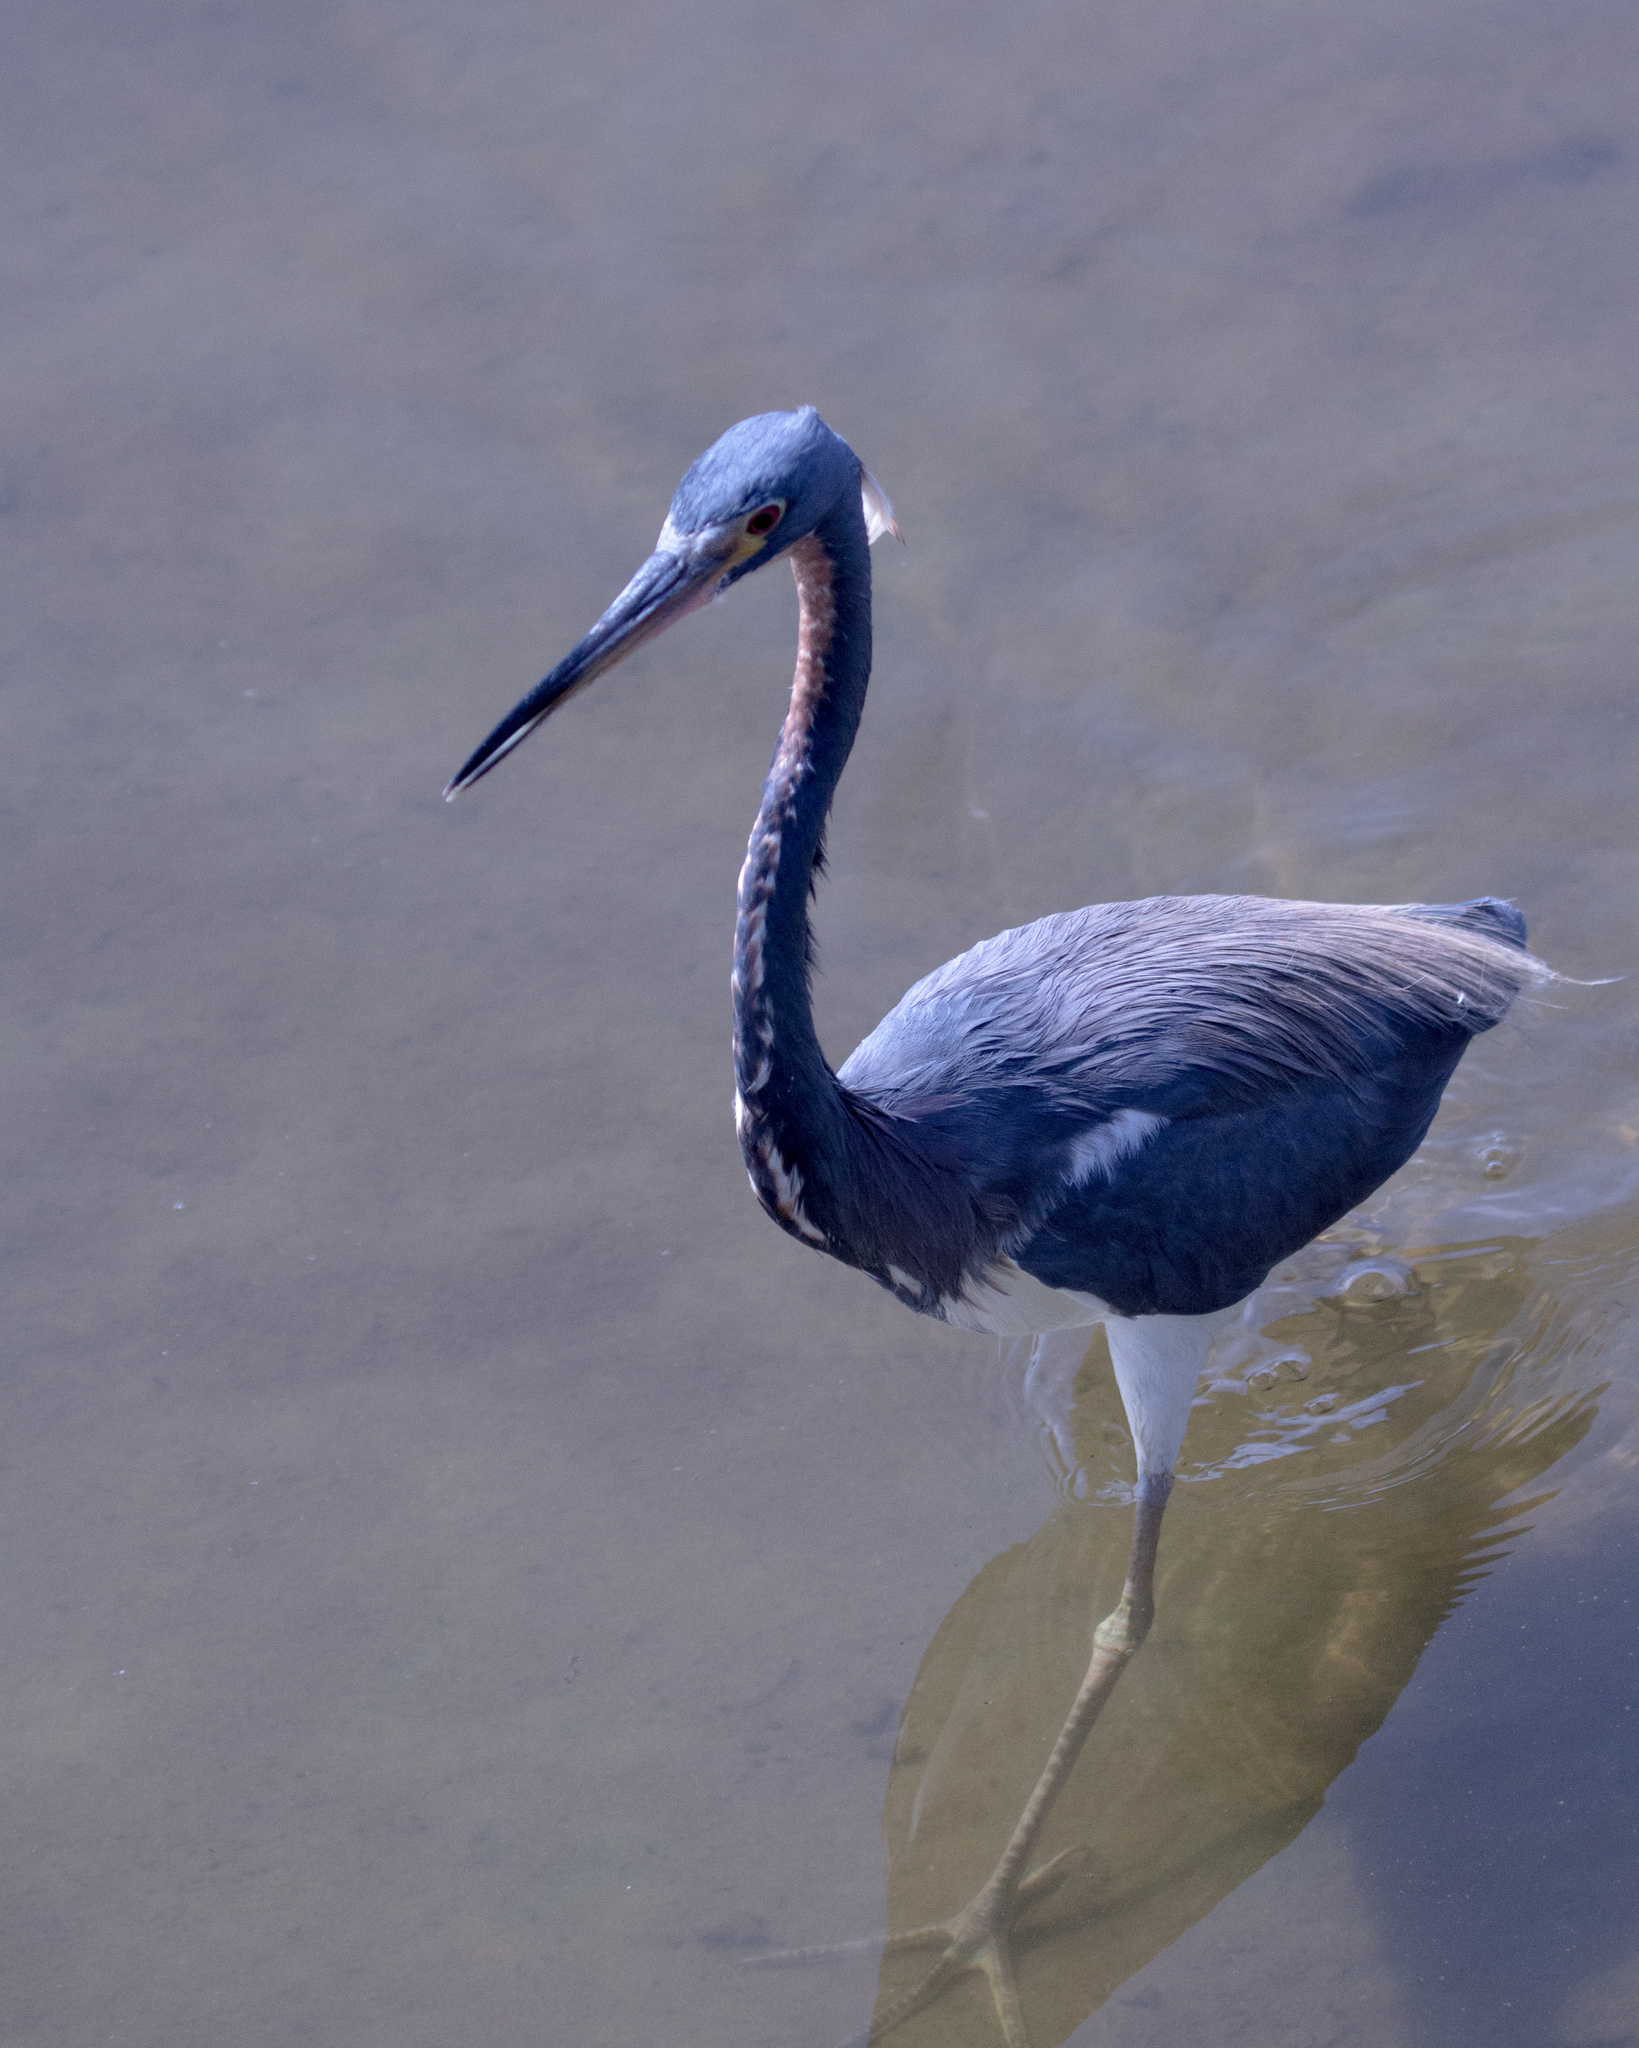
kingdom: Animalia
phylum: Chordata
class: Aves
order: Pelecaniformes
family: Ardeidae
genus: Egretta
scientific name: Egretta tricolor
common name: Tricolored heron
